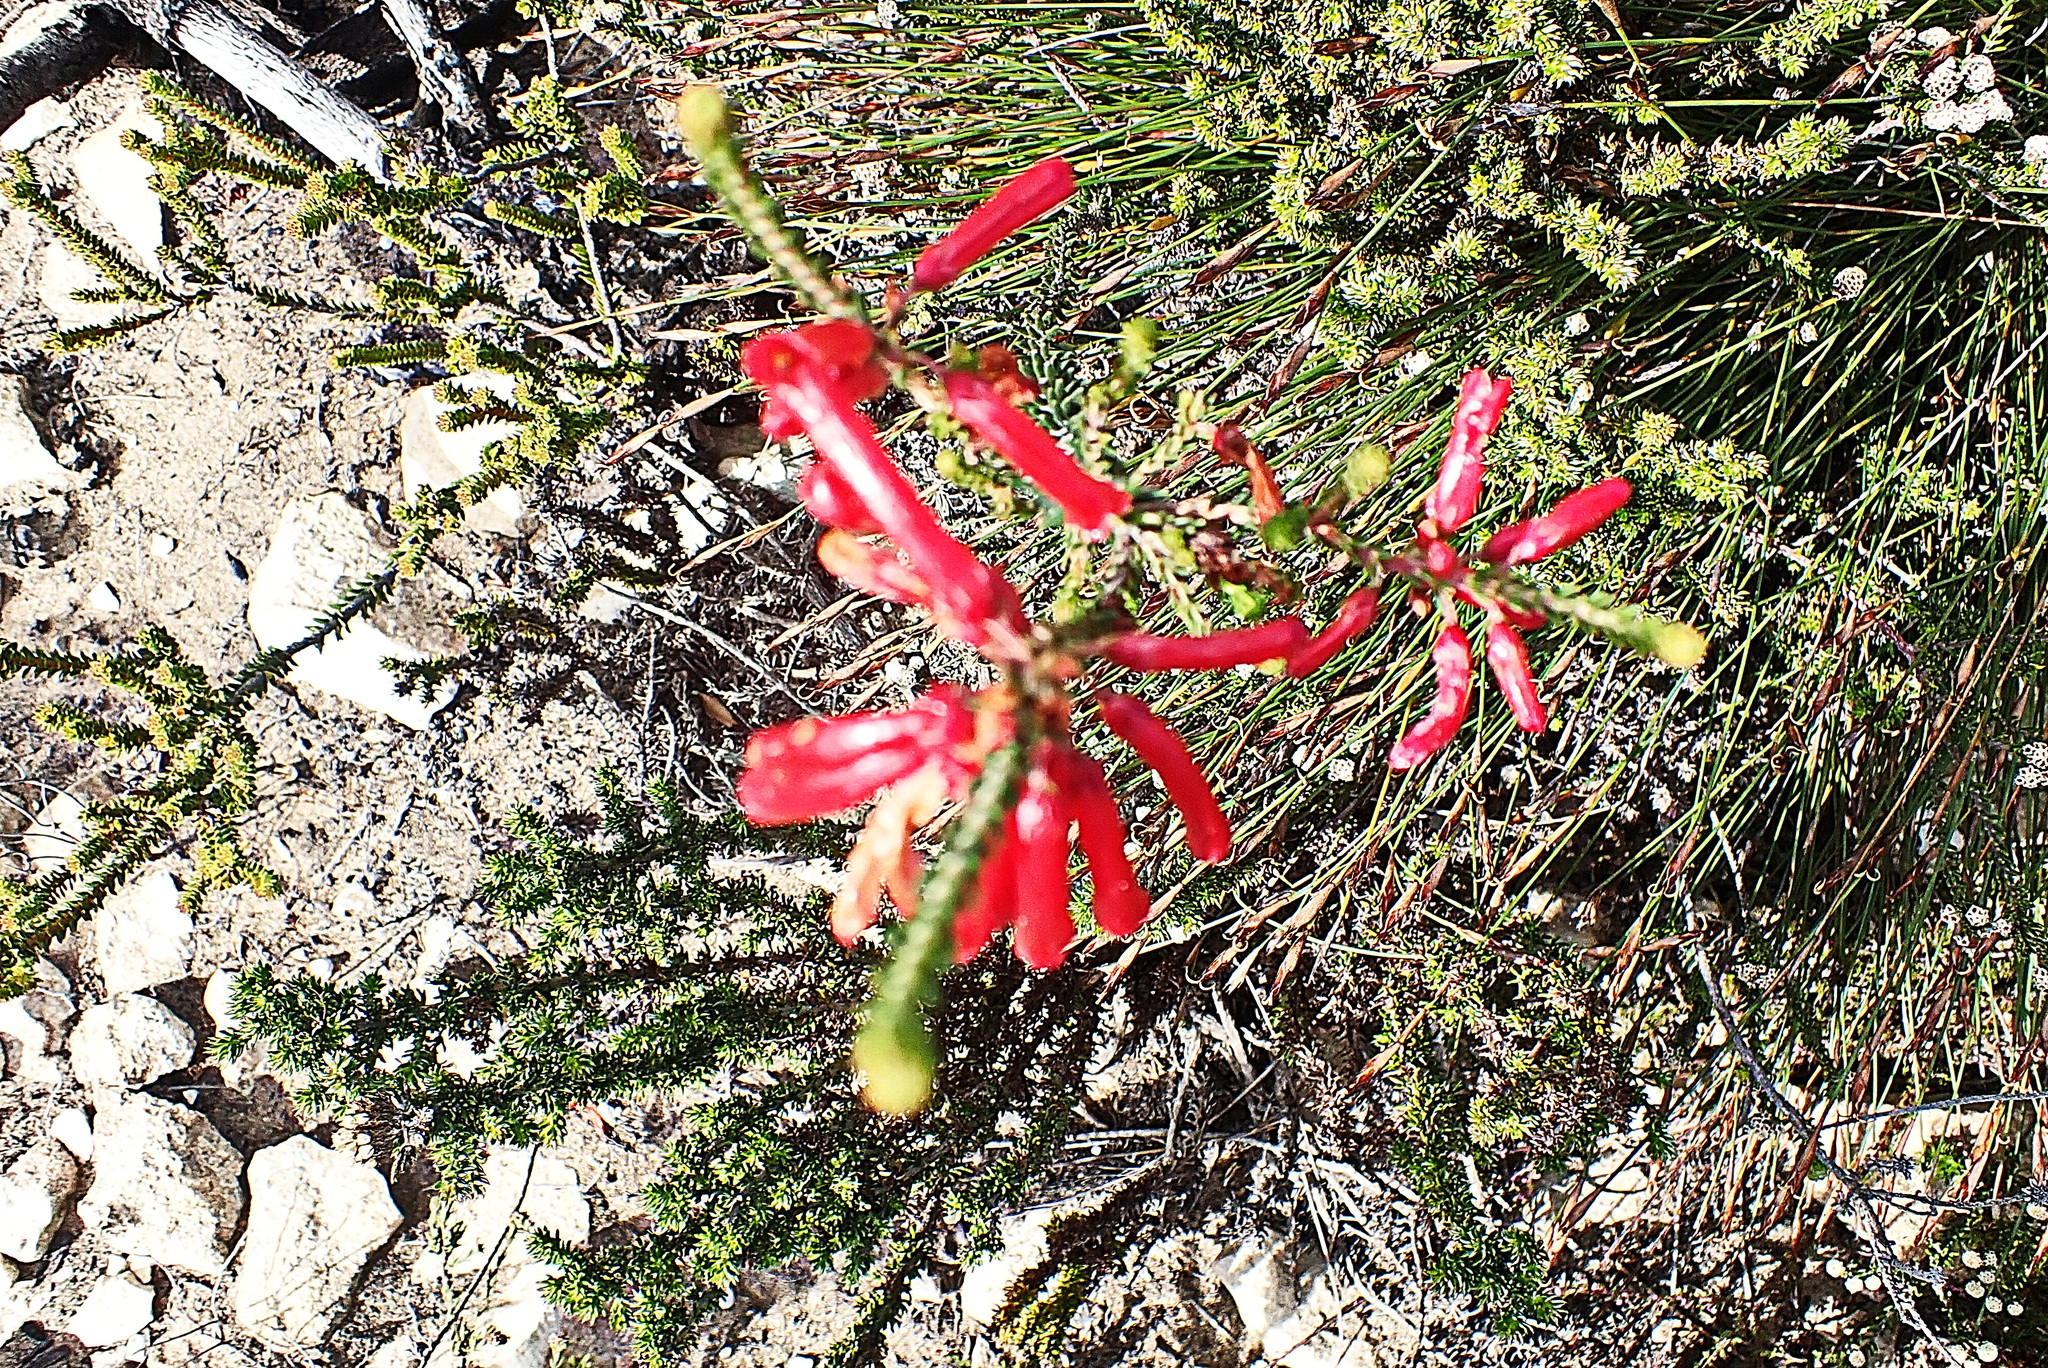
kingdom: Plantae
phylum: Tracheophyta
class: Magnoliopsida
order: Ericales
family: Ericaceae
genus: Erica
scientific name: Erica regia
